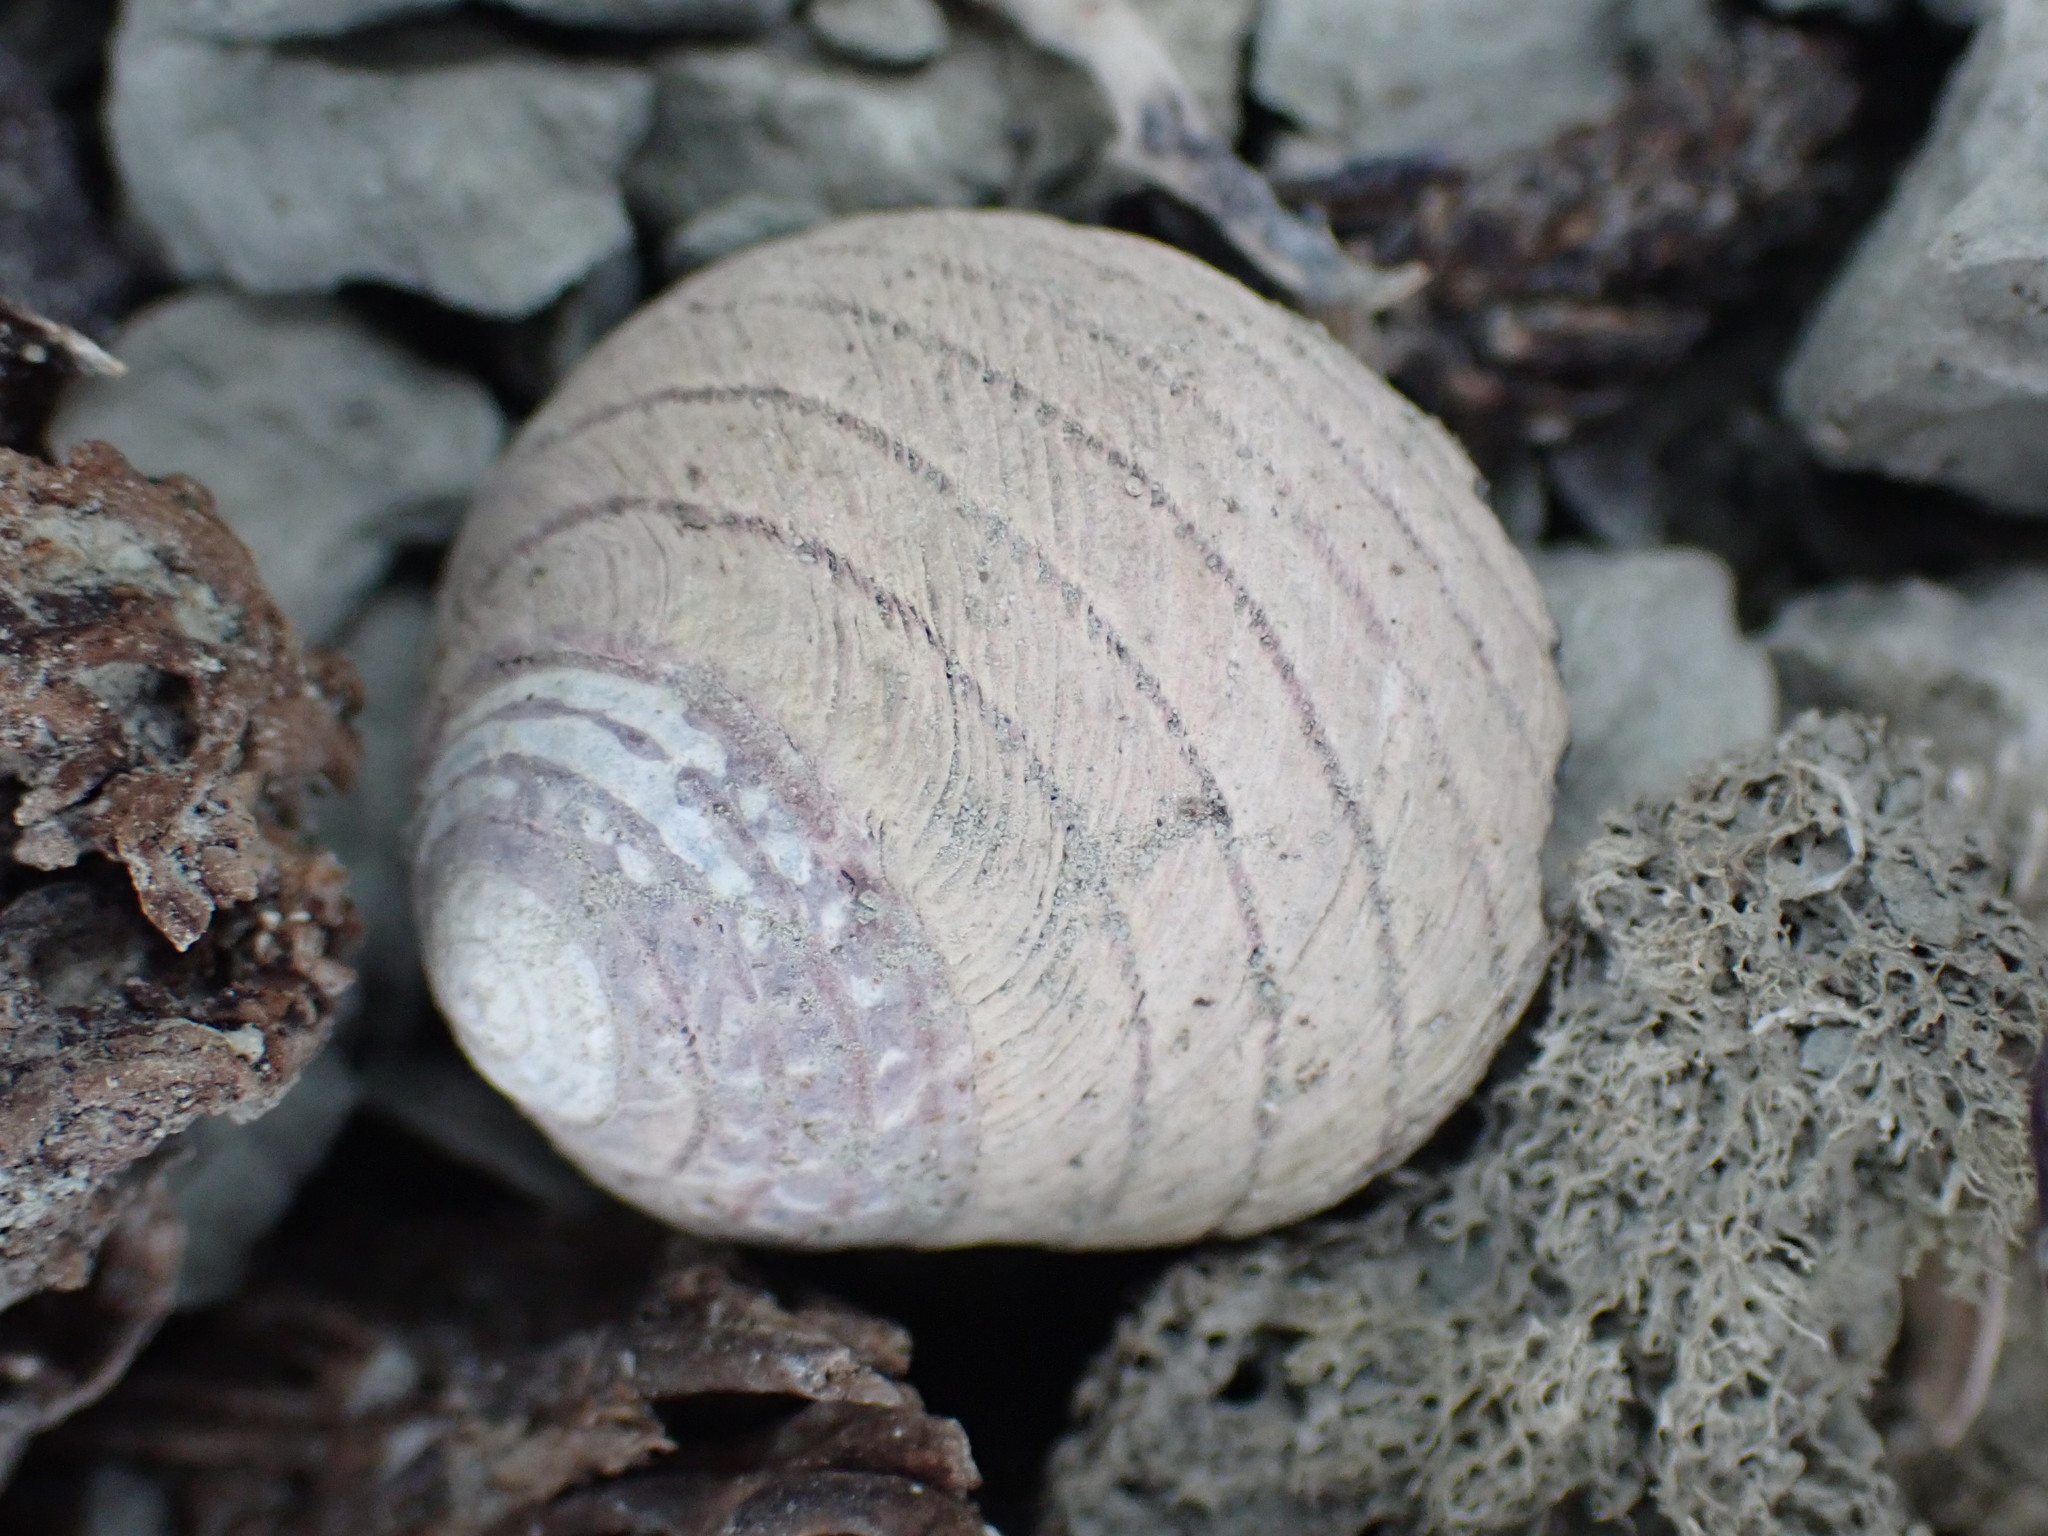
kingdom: Animalia
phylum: Mollusca
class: Gastropoda
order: Trochida
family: Trochidae
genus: Diloma
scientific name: Diloma aethiops
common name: Scorched monodont
